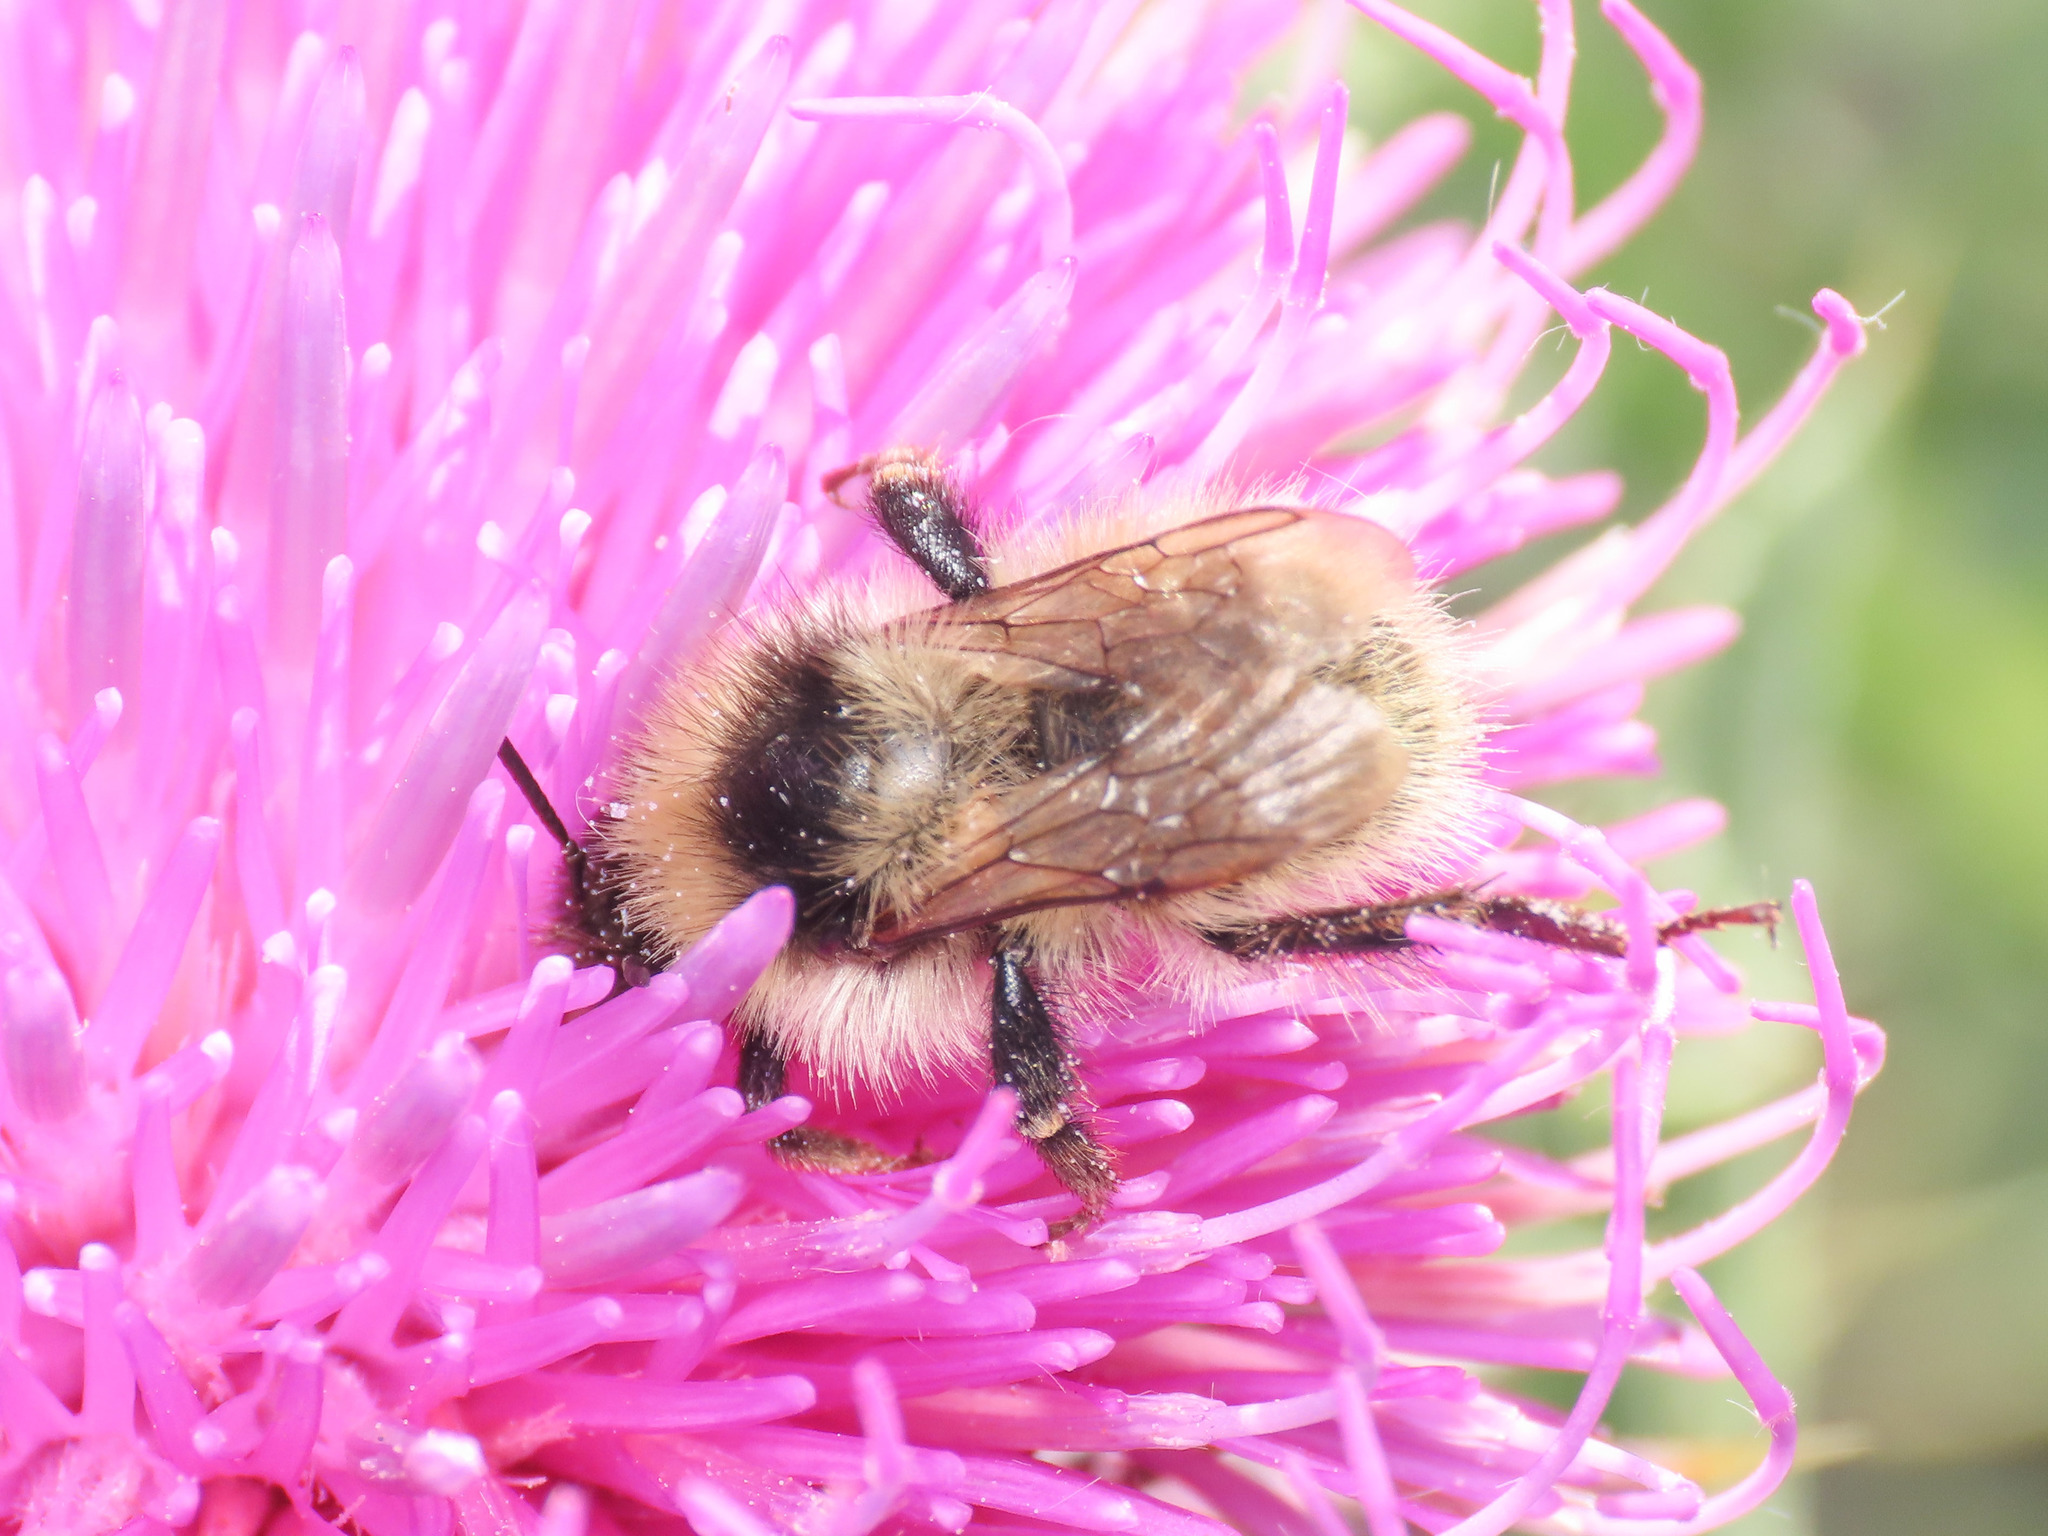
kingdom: Animalia
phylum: Arthropoda
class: Insecta
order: Hymenoptera
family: Apidae
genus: Bombus
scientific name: Bombus mesomelas
